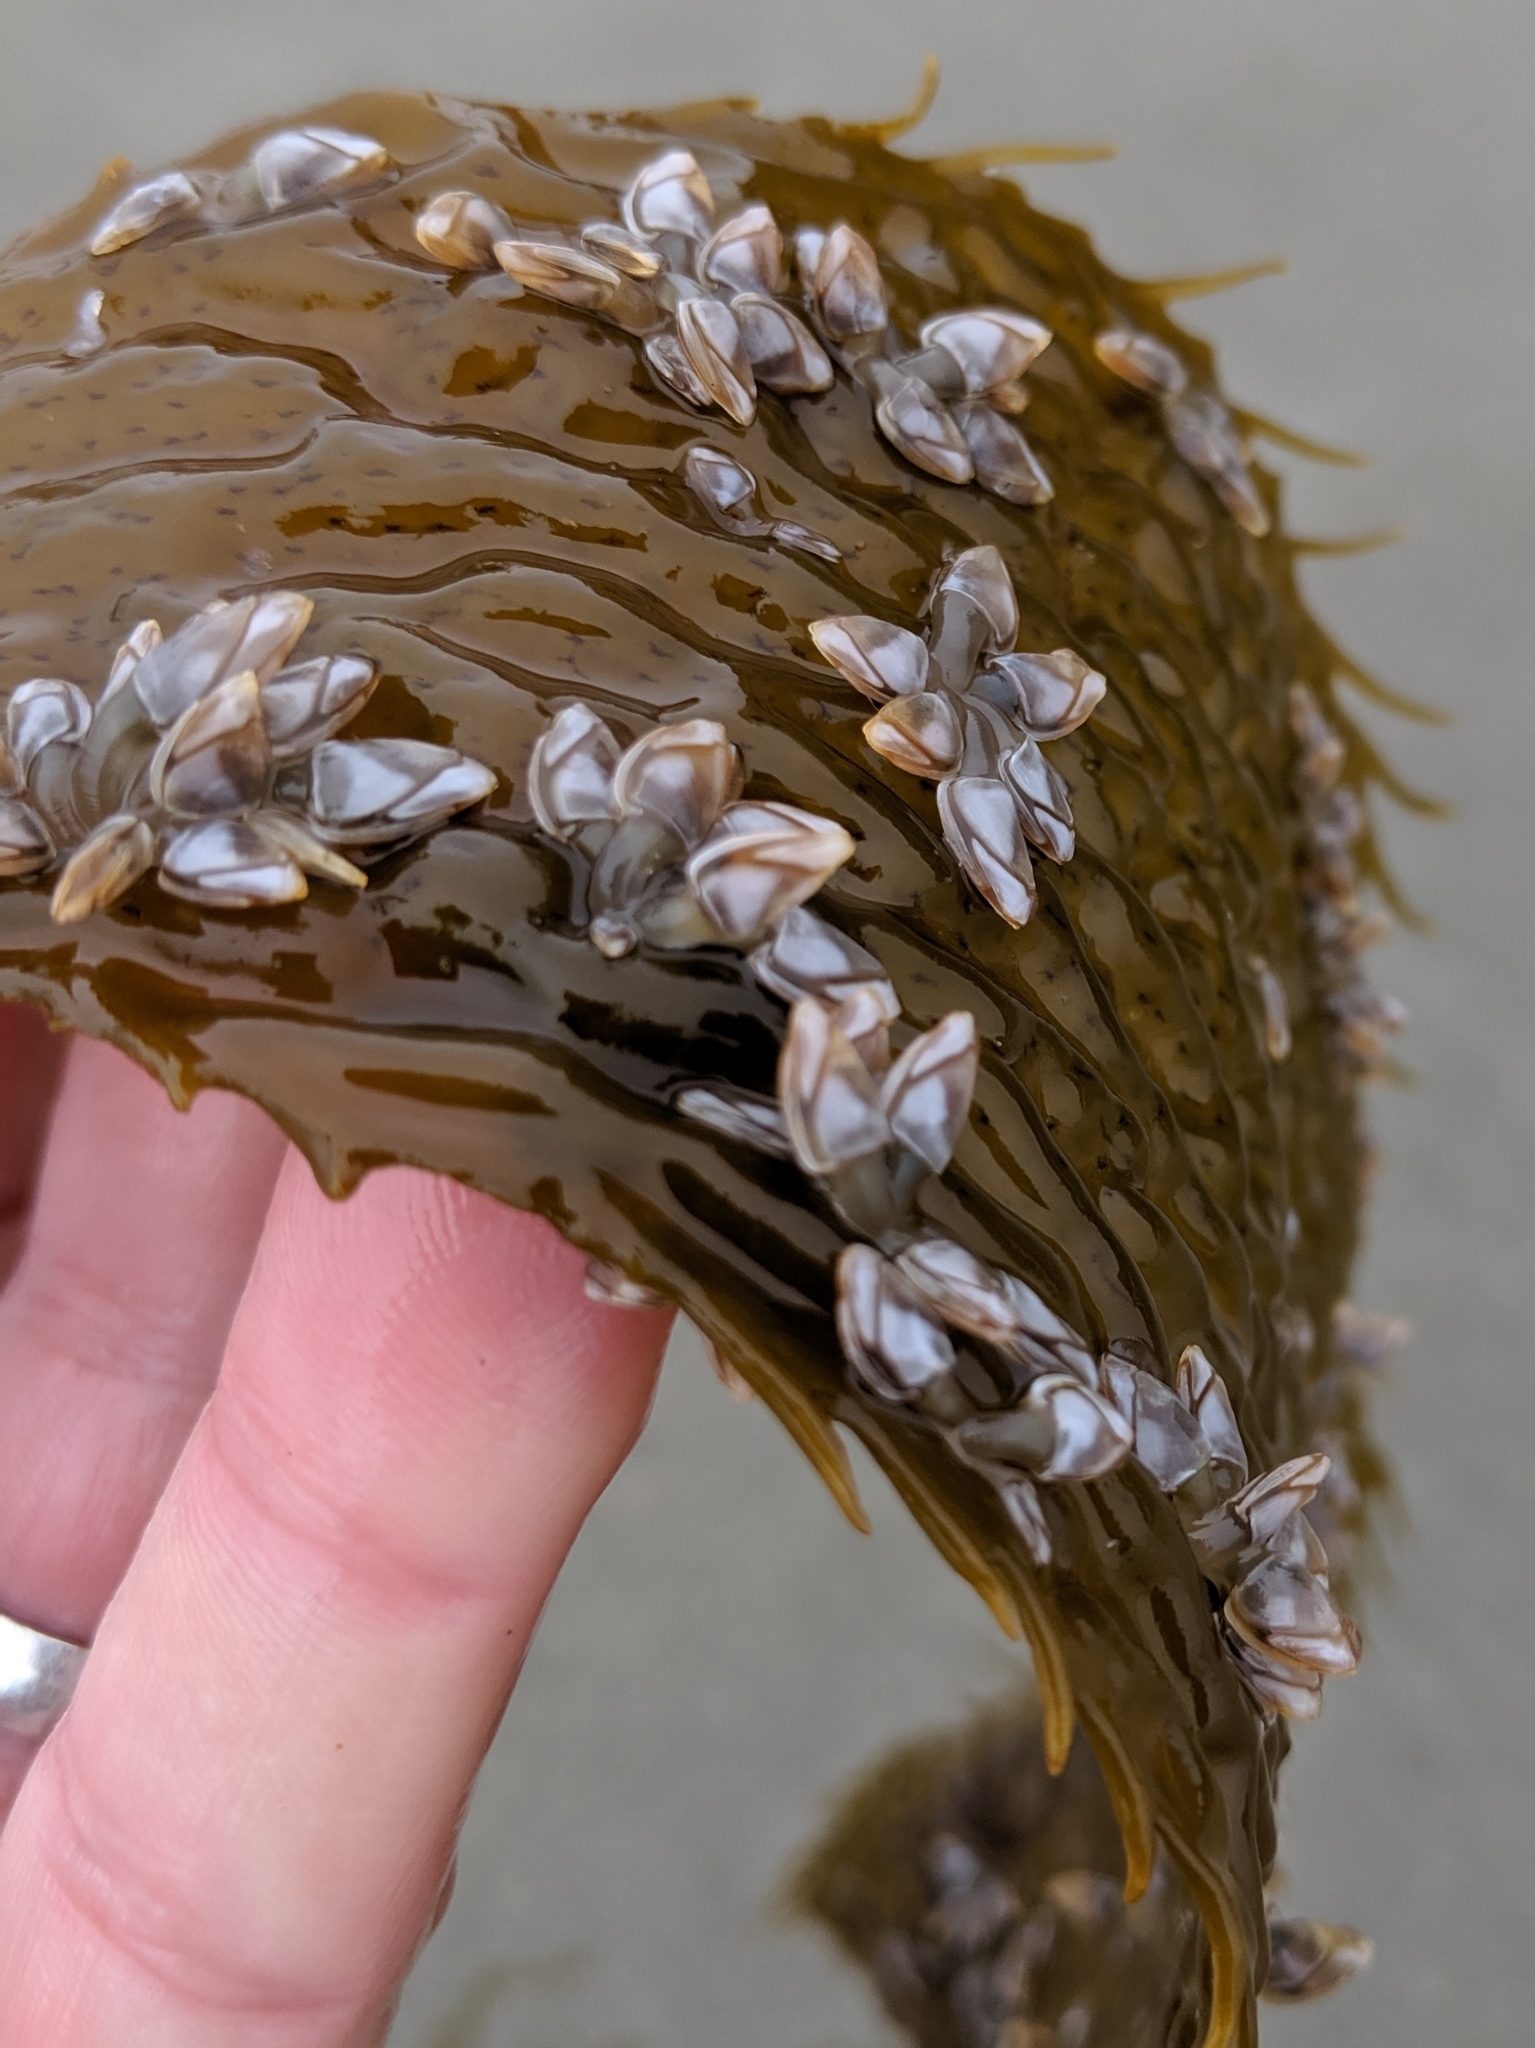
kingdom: Animalia
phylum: Arthropoda
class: Maxillopoda
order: Pedunculata
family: Lepadidae
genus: Lepas
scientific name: Lepas pacifica
